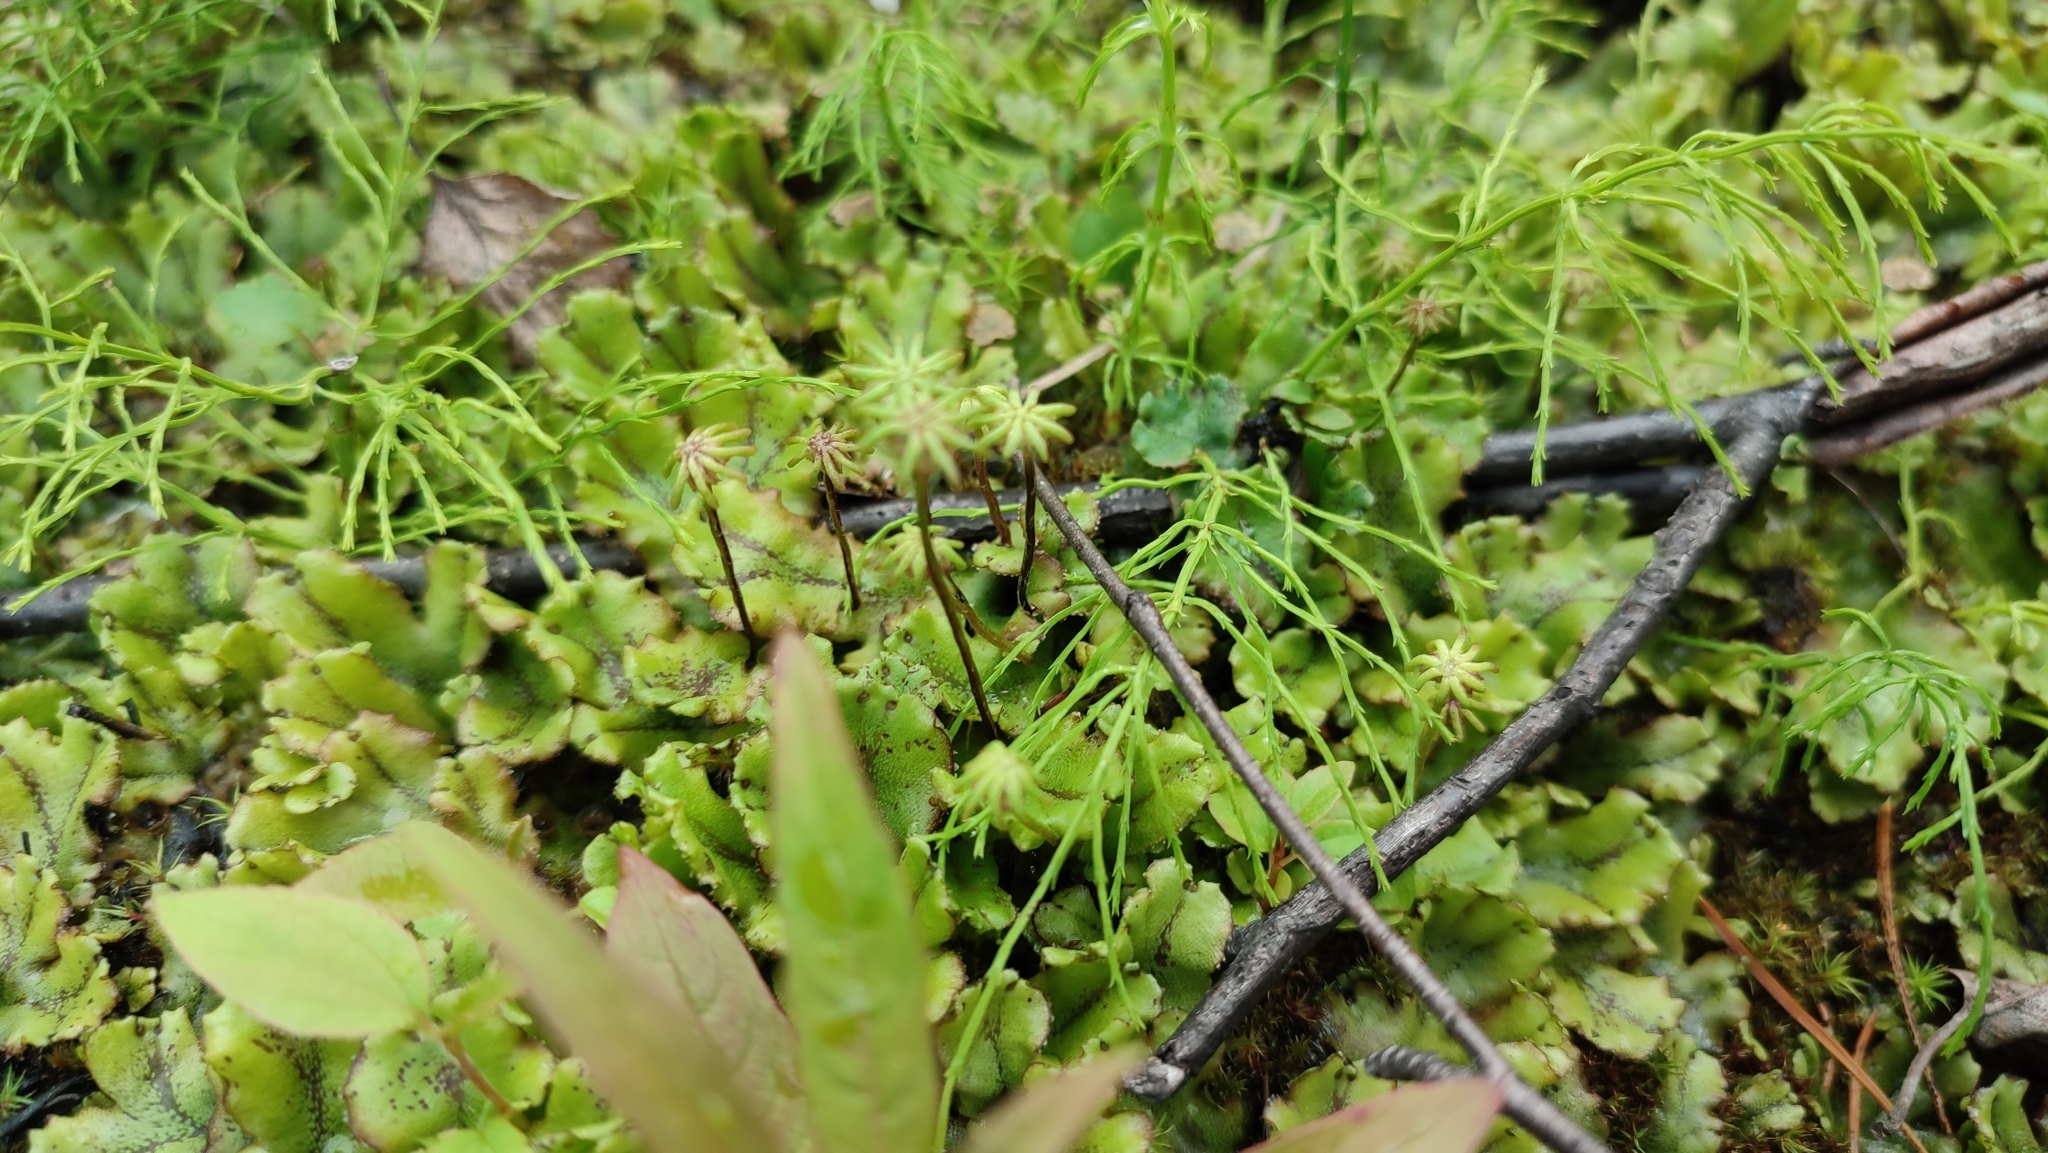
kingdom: Plantae
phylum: Marchantiophyta
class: Marchantiopsida
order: Marchantiales
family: Marchantiaceae
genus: Marchantia
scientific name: Marchantia polymorpha
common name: Common liverwort
